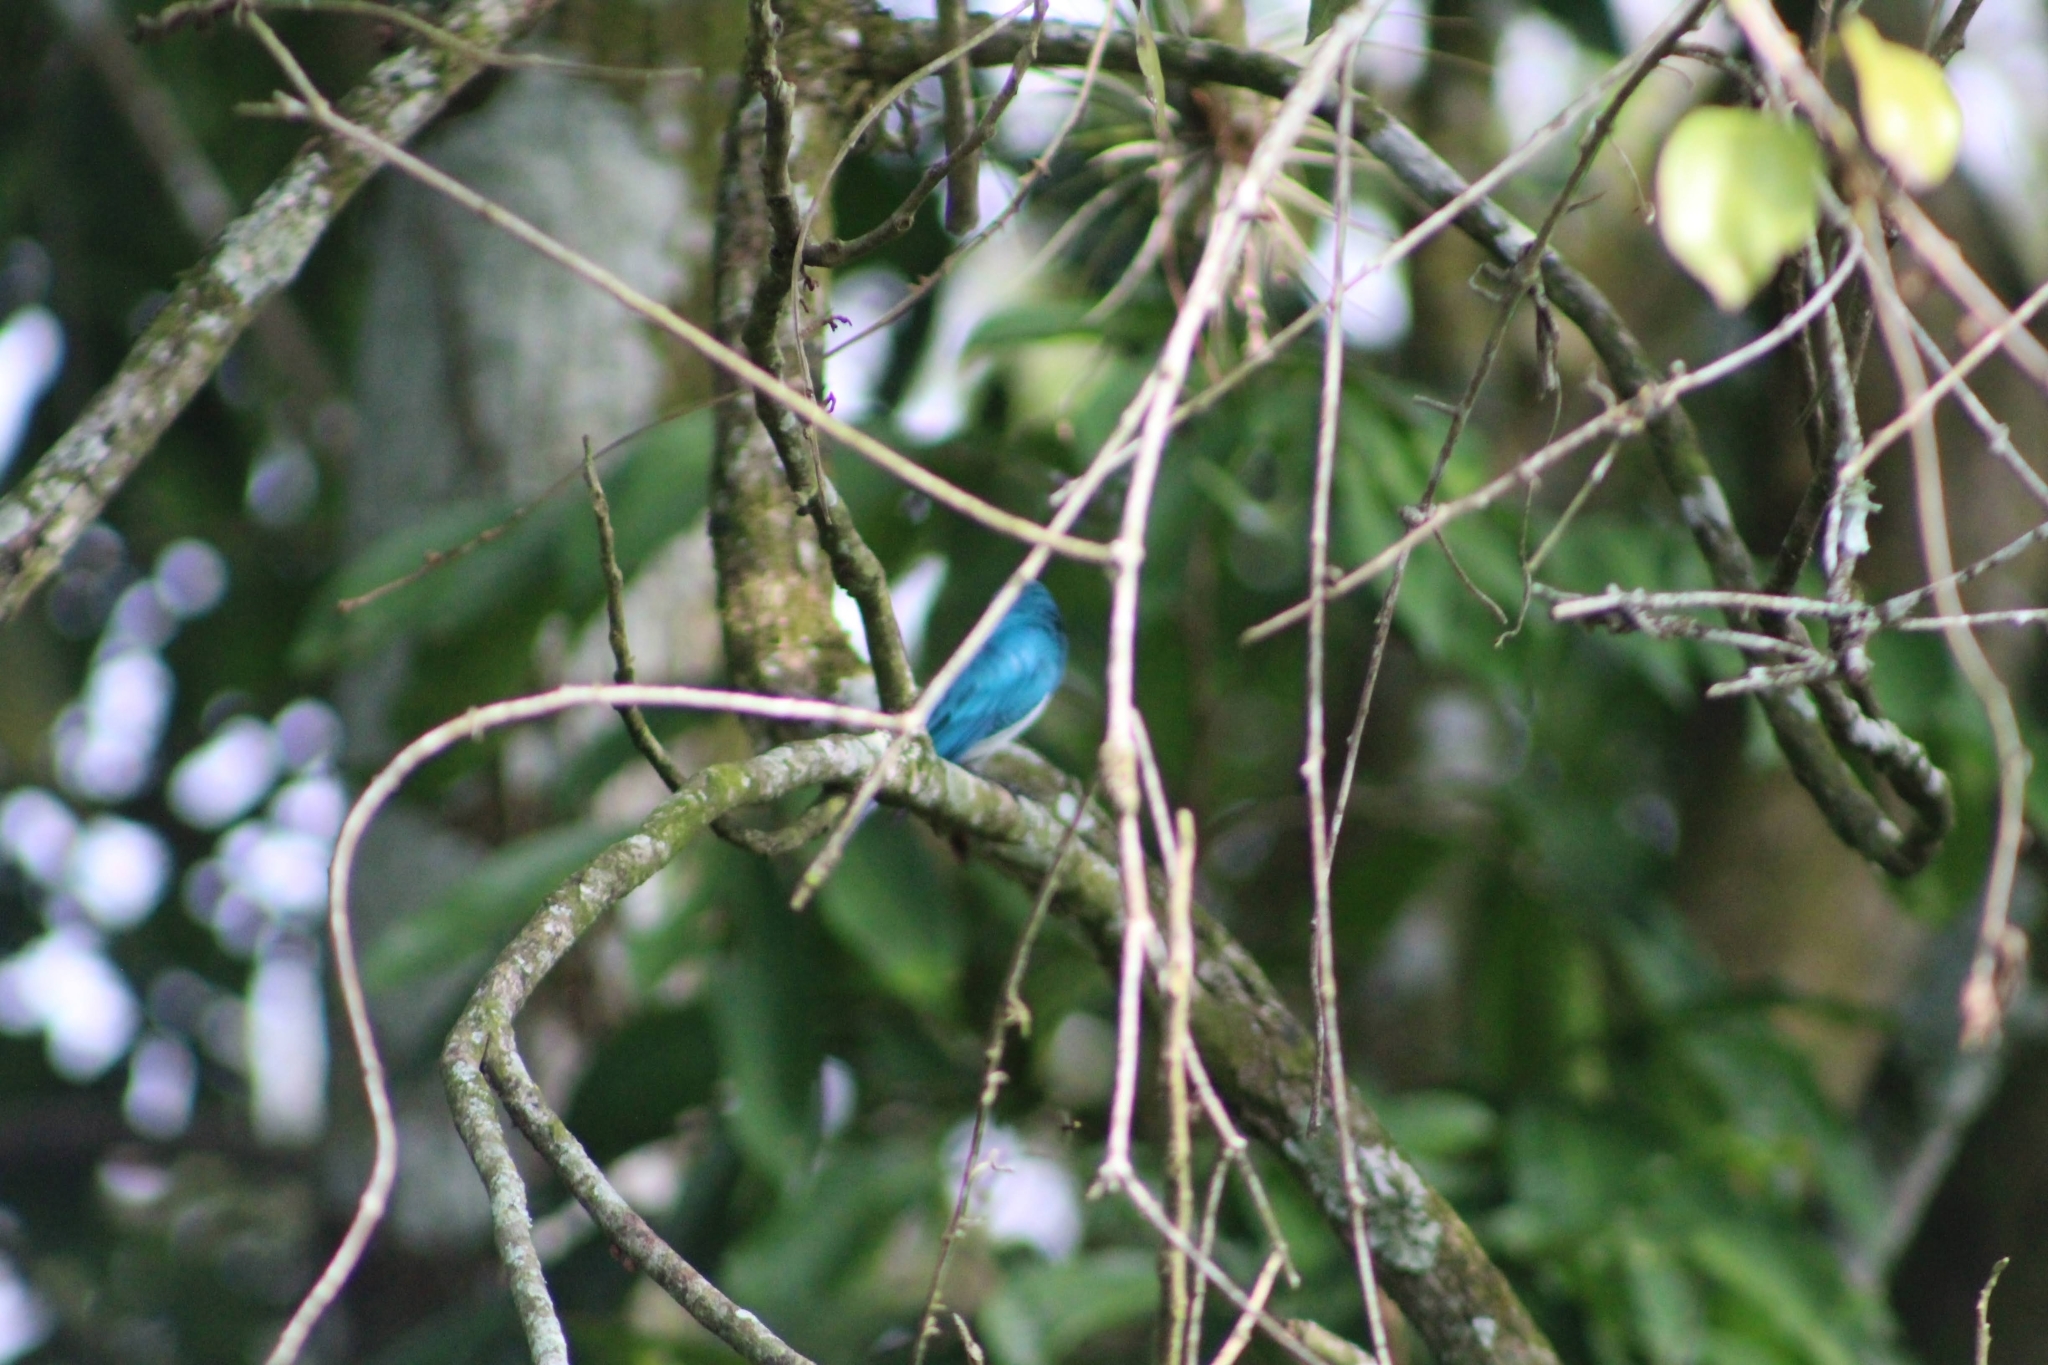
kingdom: Animalia
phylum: Chordata
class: Aves
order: Passeriformes
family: Thraupidae
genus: Tersina
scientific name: Tersina viridis
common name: Swallow tanager
